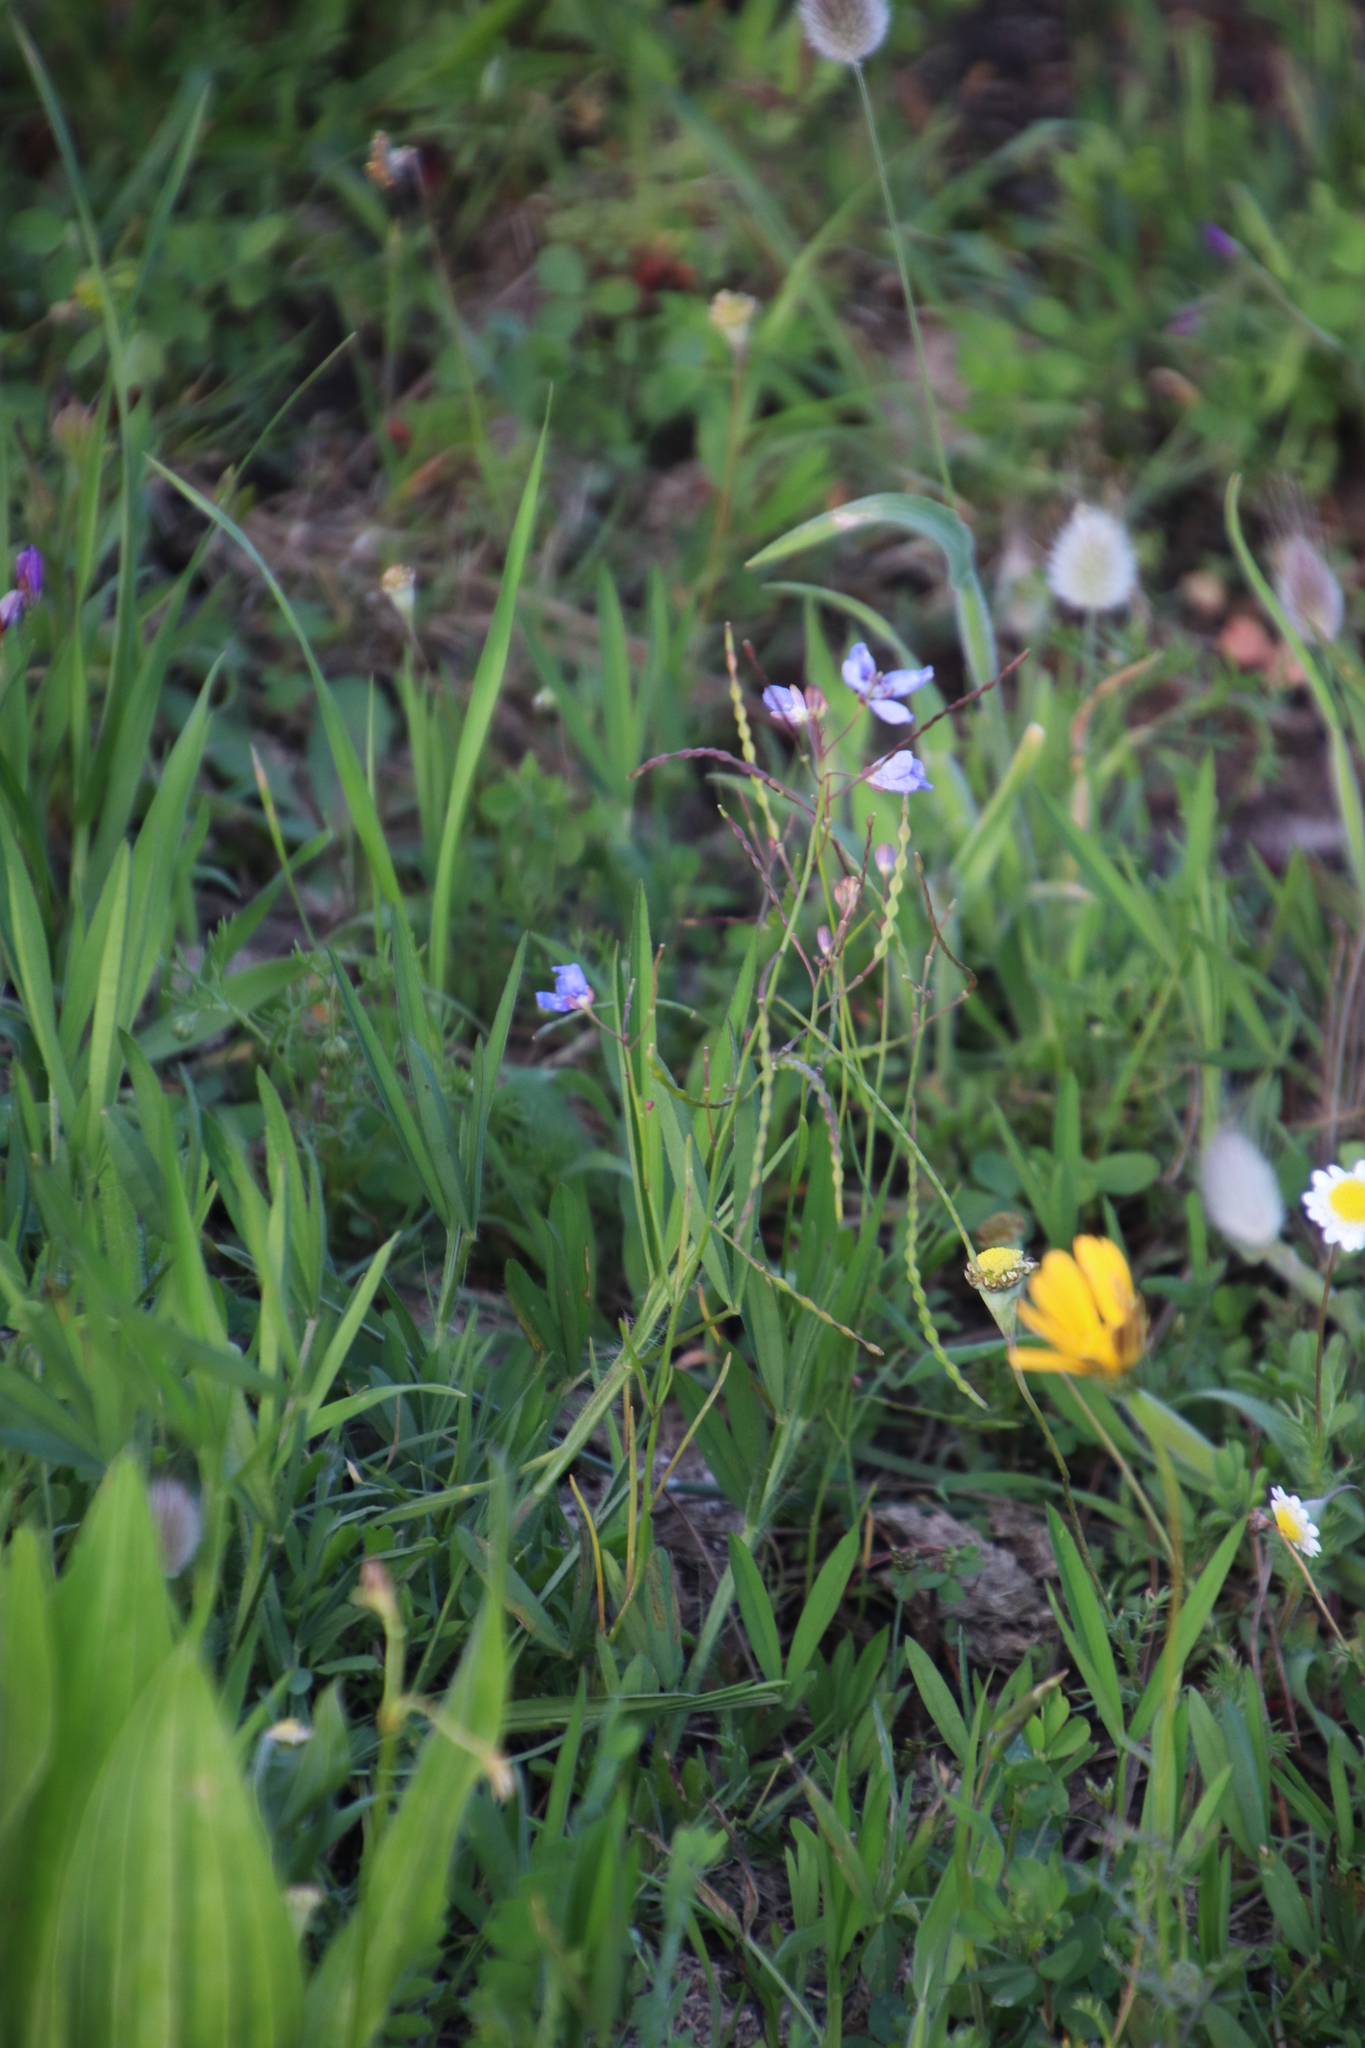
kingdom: Plantae
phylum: Tracheophyta
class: Magnoliopsida
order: Brassicales
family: Brassicaceae
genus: Heliophila
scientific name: Heliophila coronopifolia
